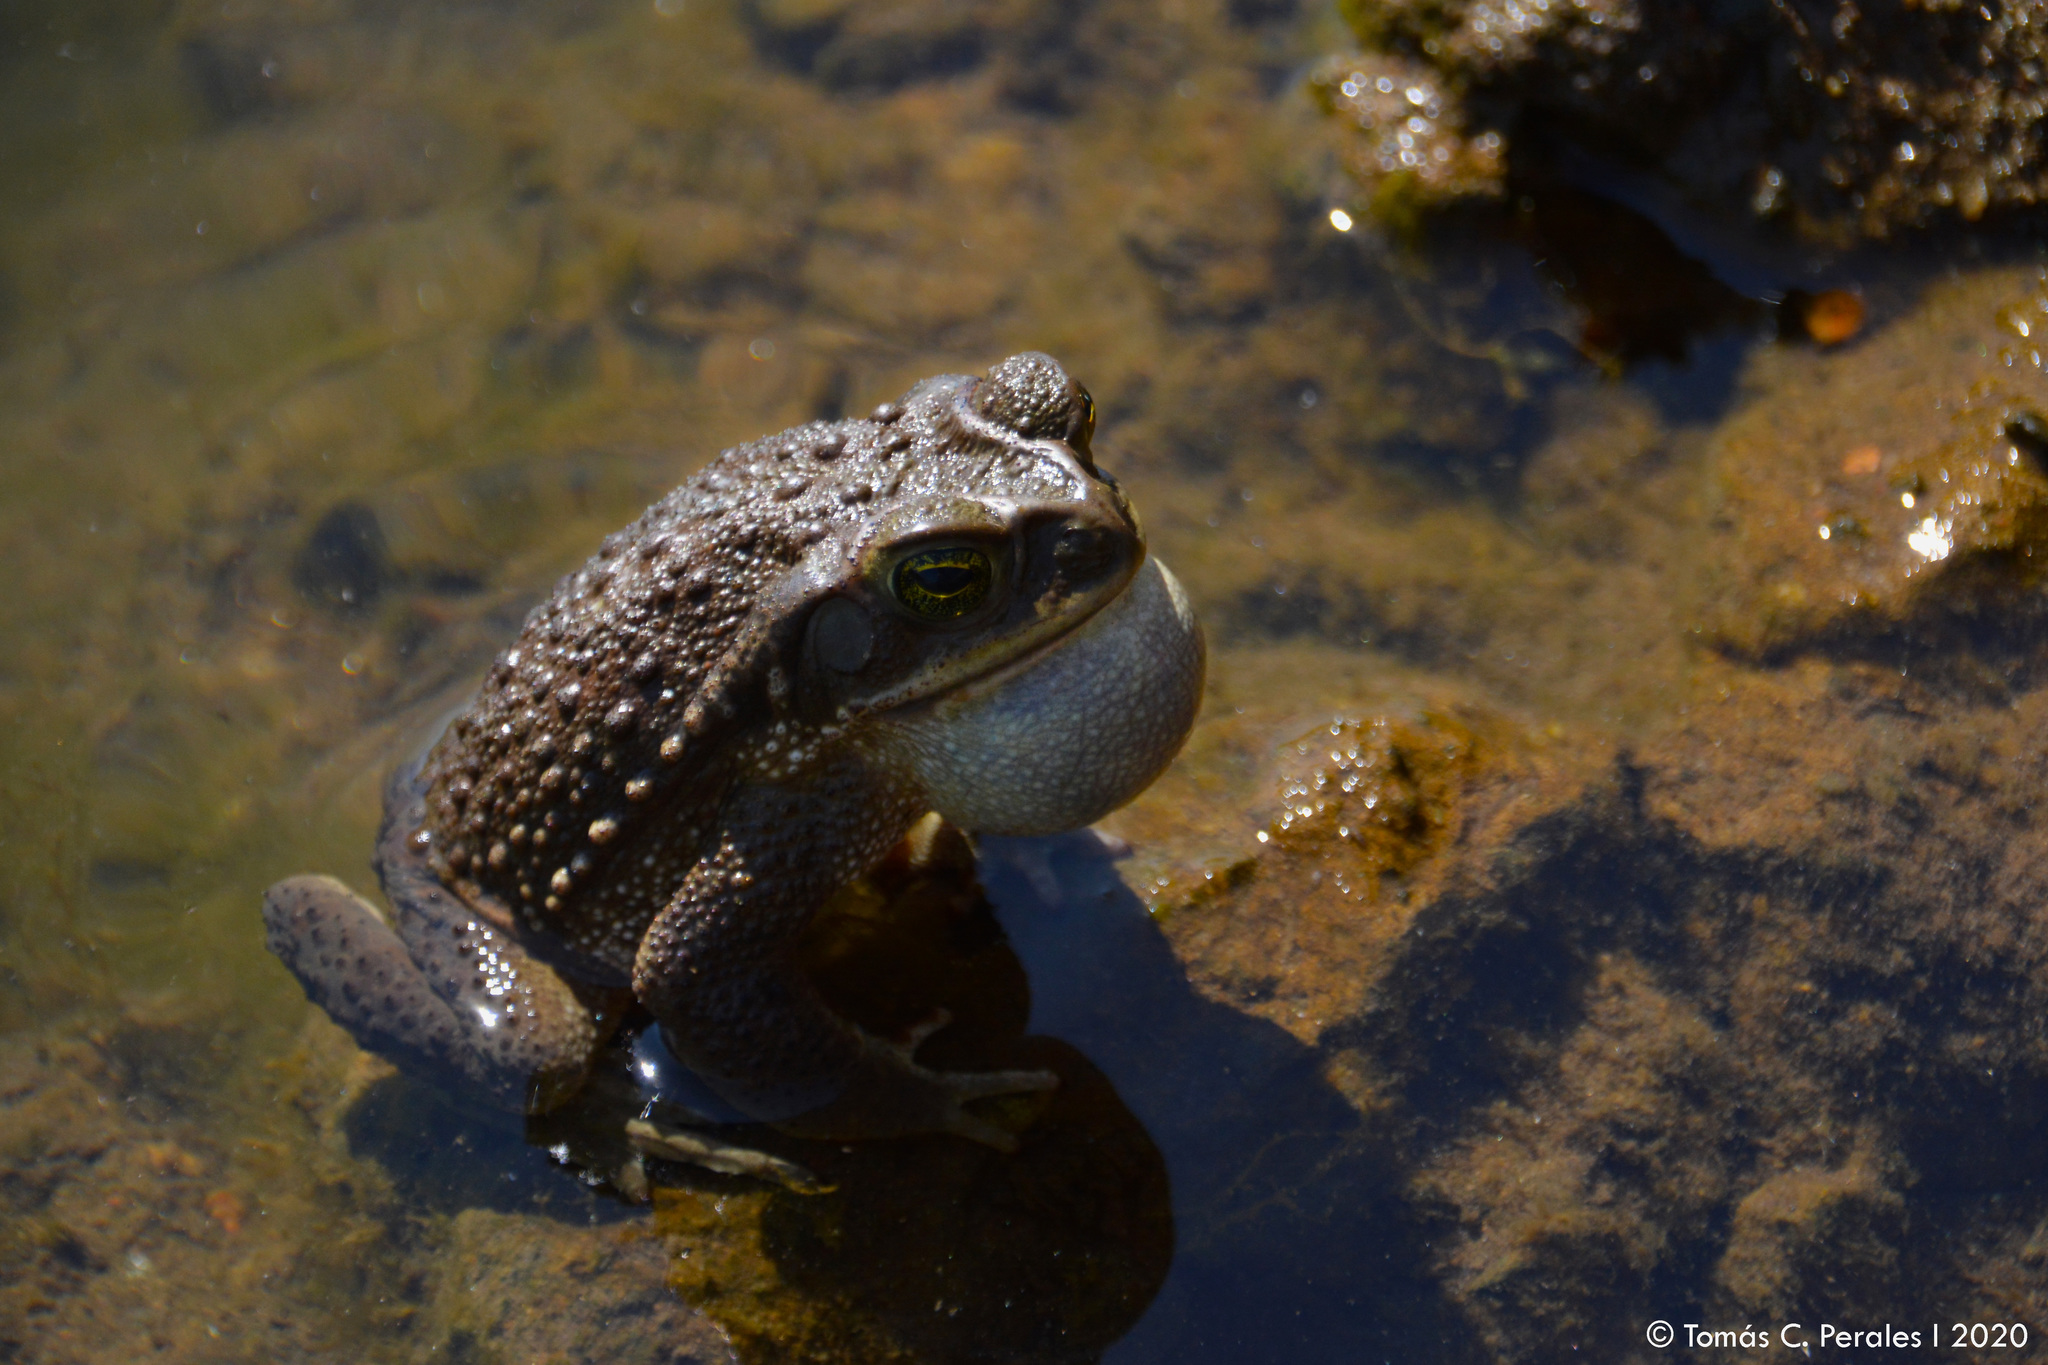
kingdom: Animalia
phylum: Chordata
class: Amphibia
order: Anura
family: Bufonidae
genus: Rhinella
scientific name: Rhinella arenarum
